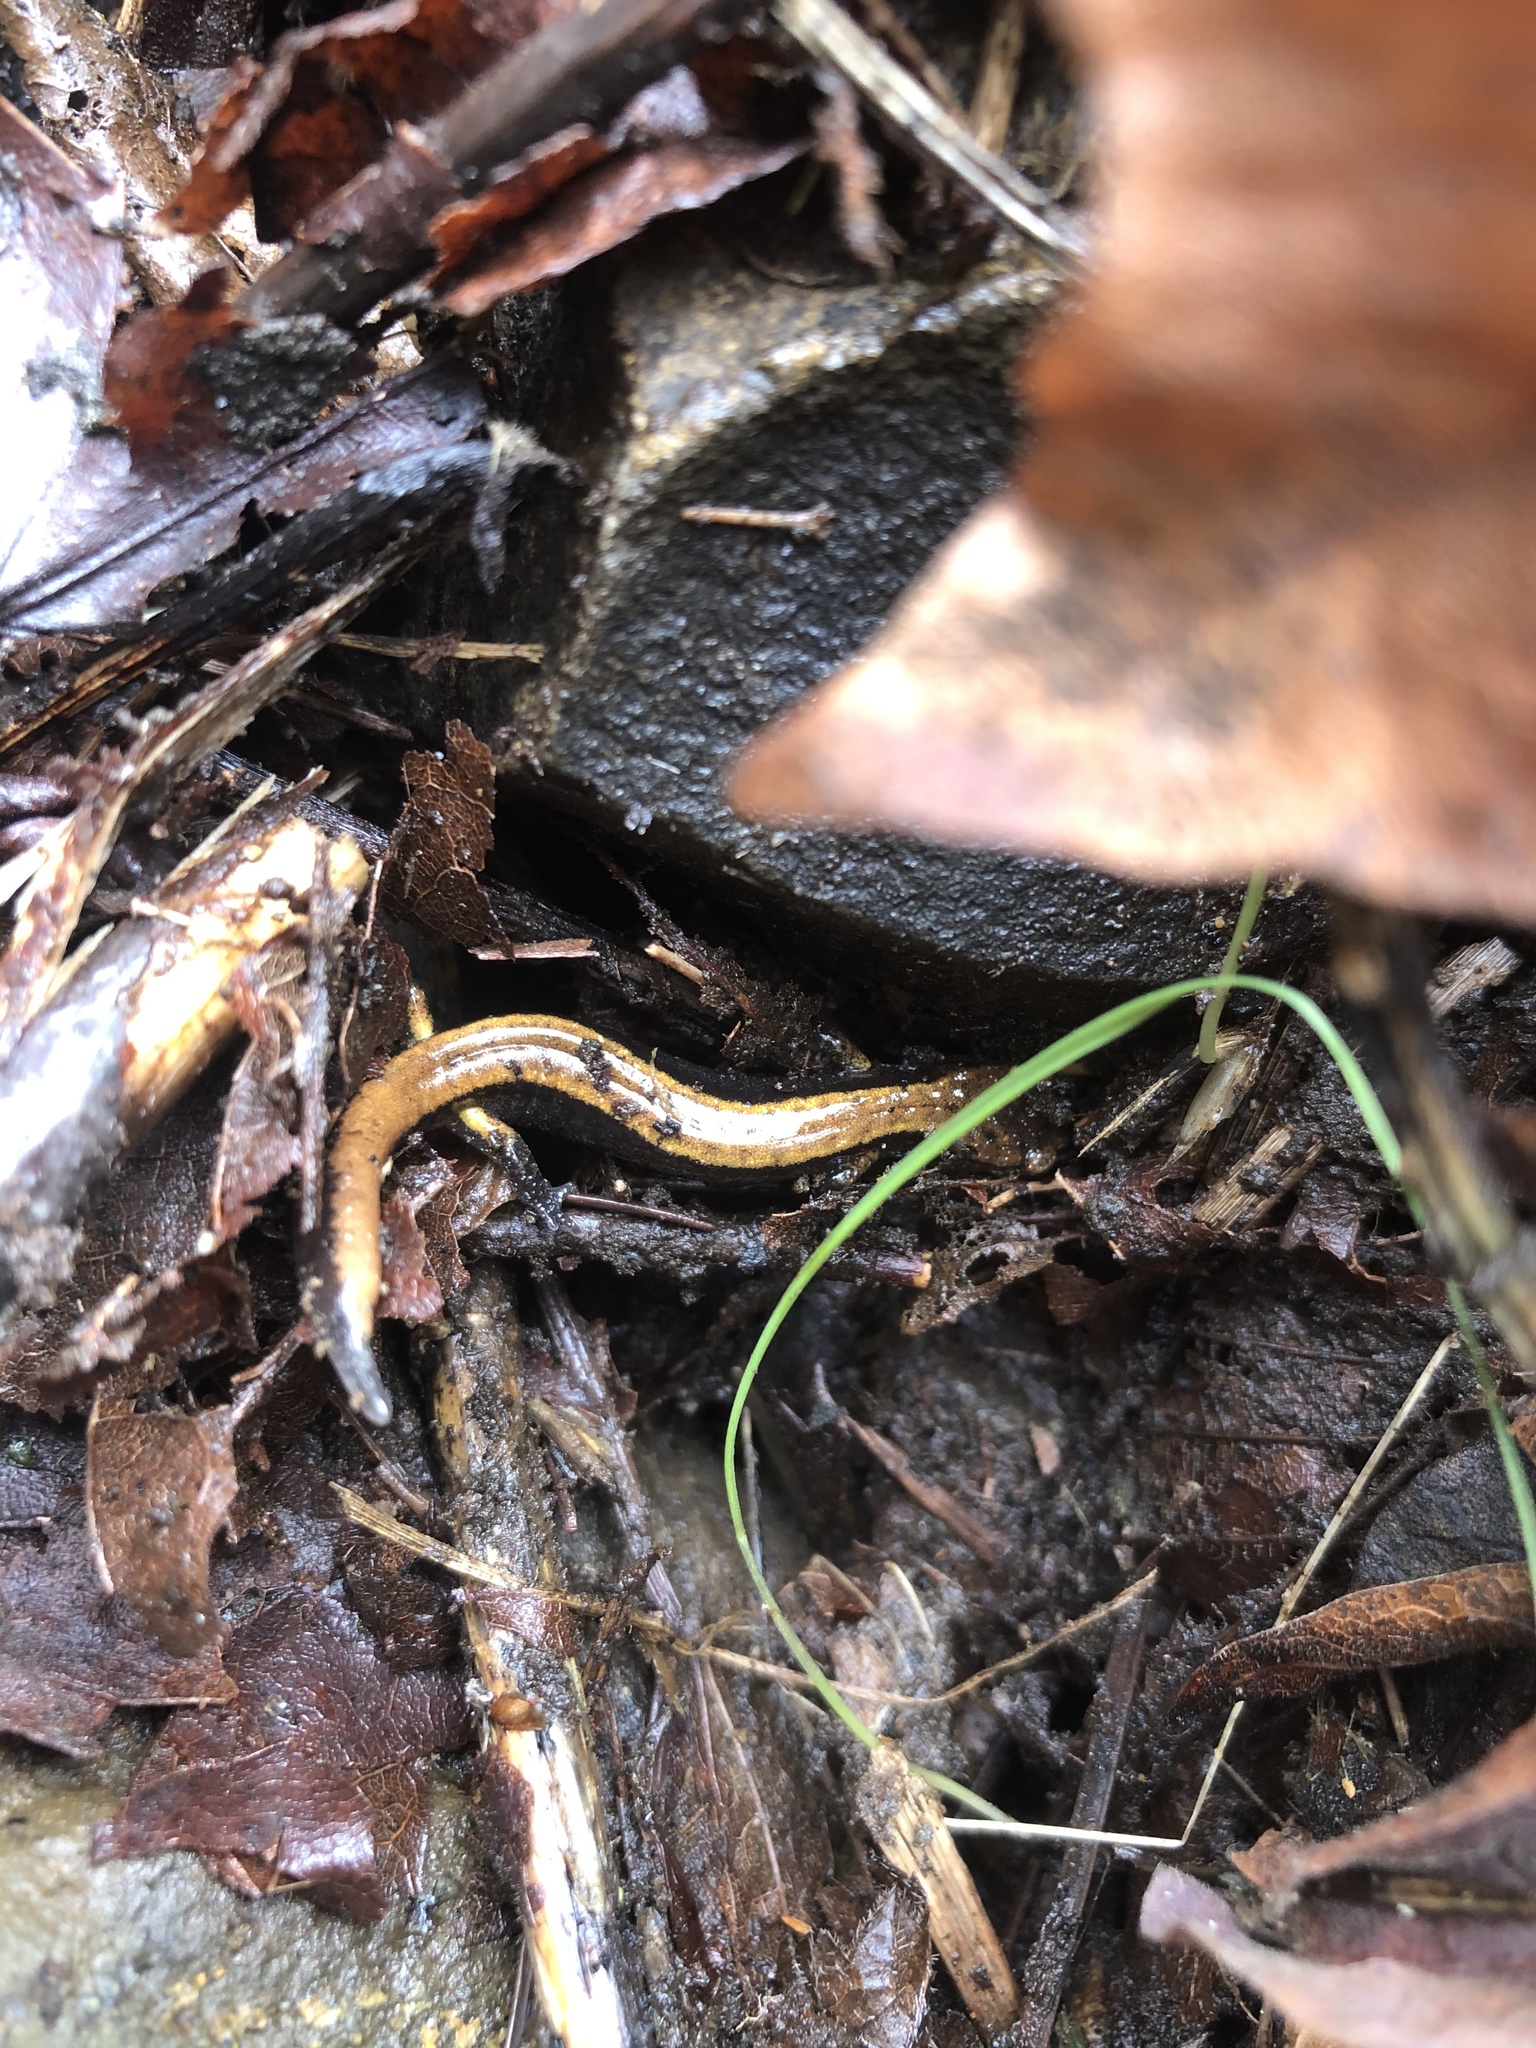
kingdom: Animalia
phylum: Chordata
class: Amphibia
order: Caudata
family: Plethodontidae
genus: Plethodon
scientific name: Plethodon vehiculum
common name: Western red-backed salamander
